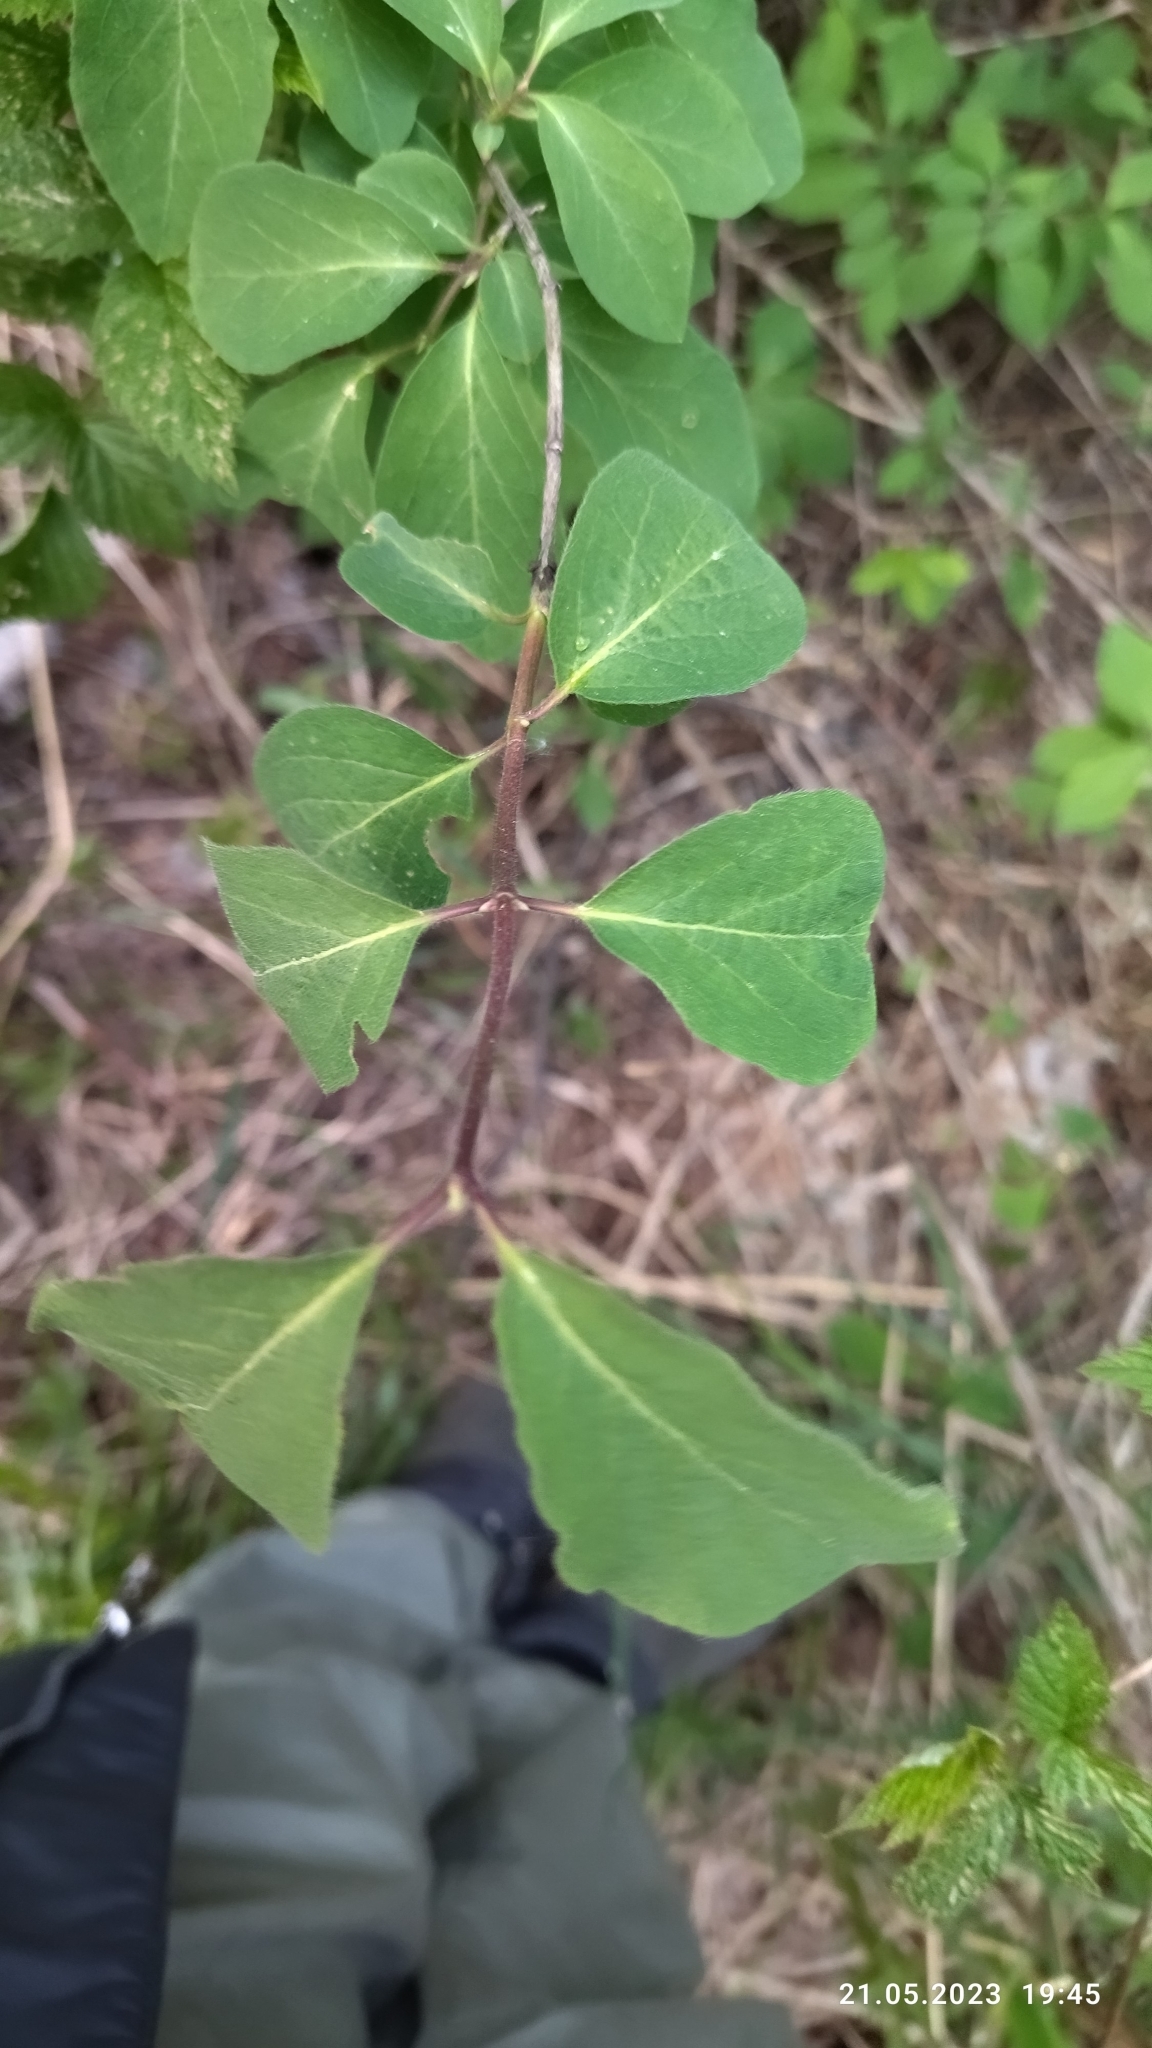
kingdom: Plantae
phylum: Tracheophyta
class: Magnoliopsida
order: Dipsacales
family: Caprifoliaceae
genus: Lonicera
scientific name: Lonicera xylosteum
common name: Fly honeysuckle
